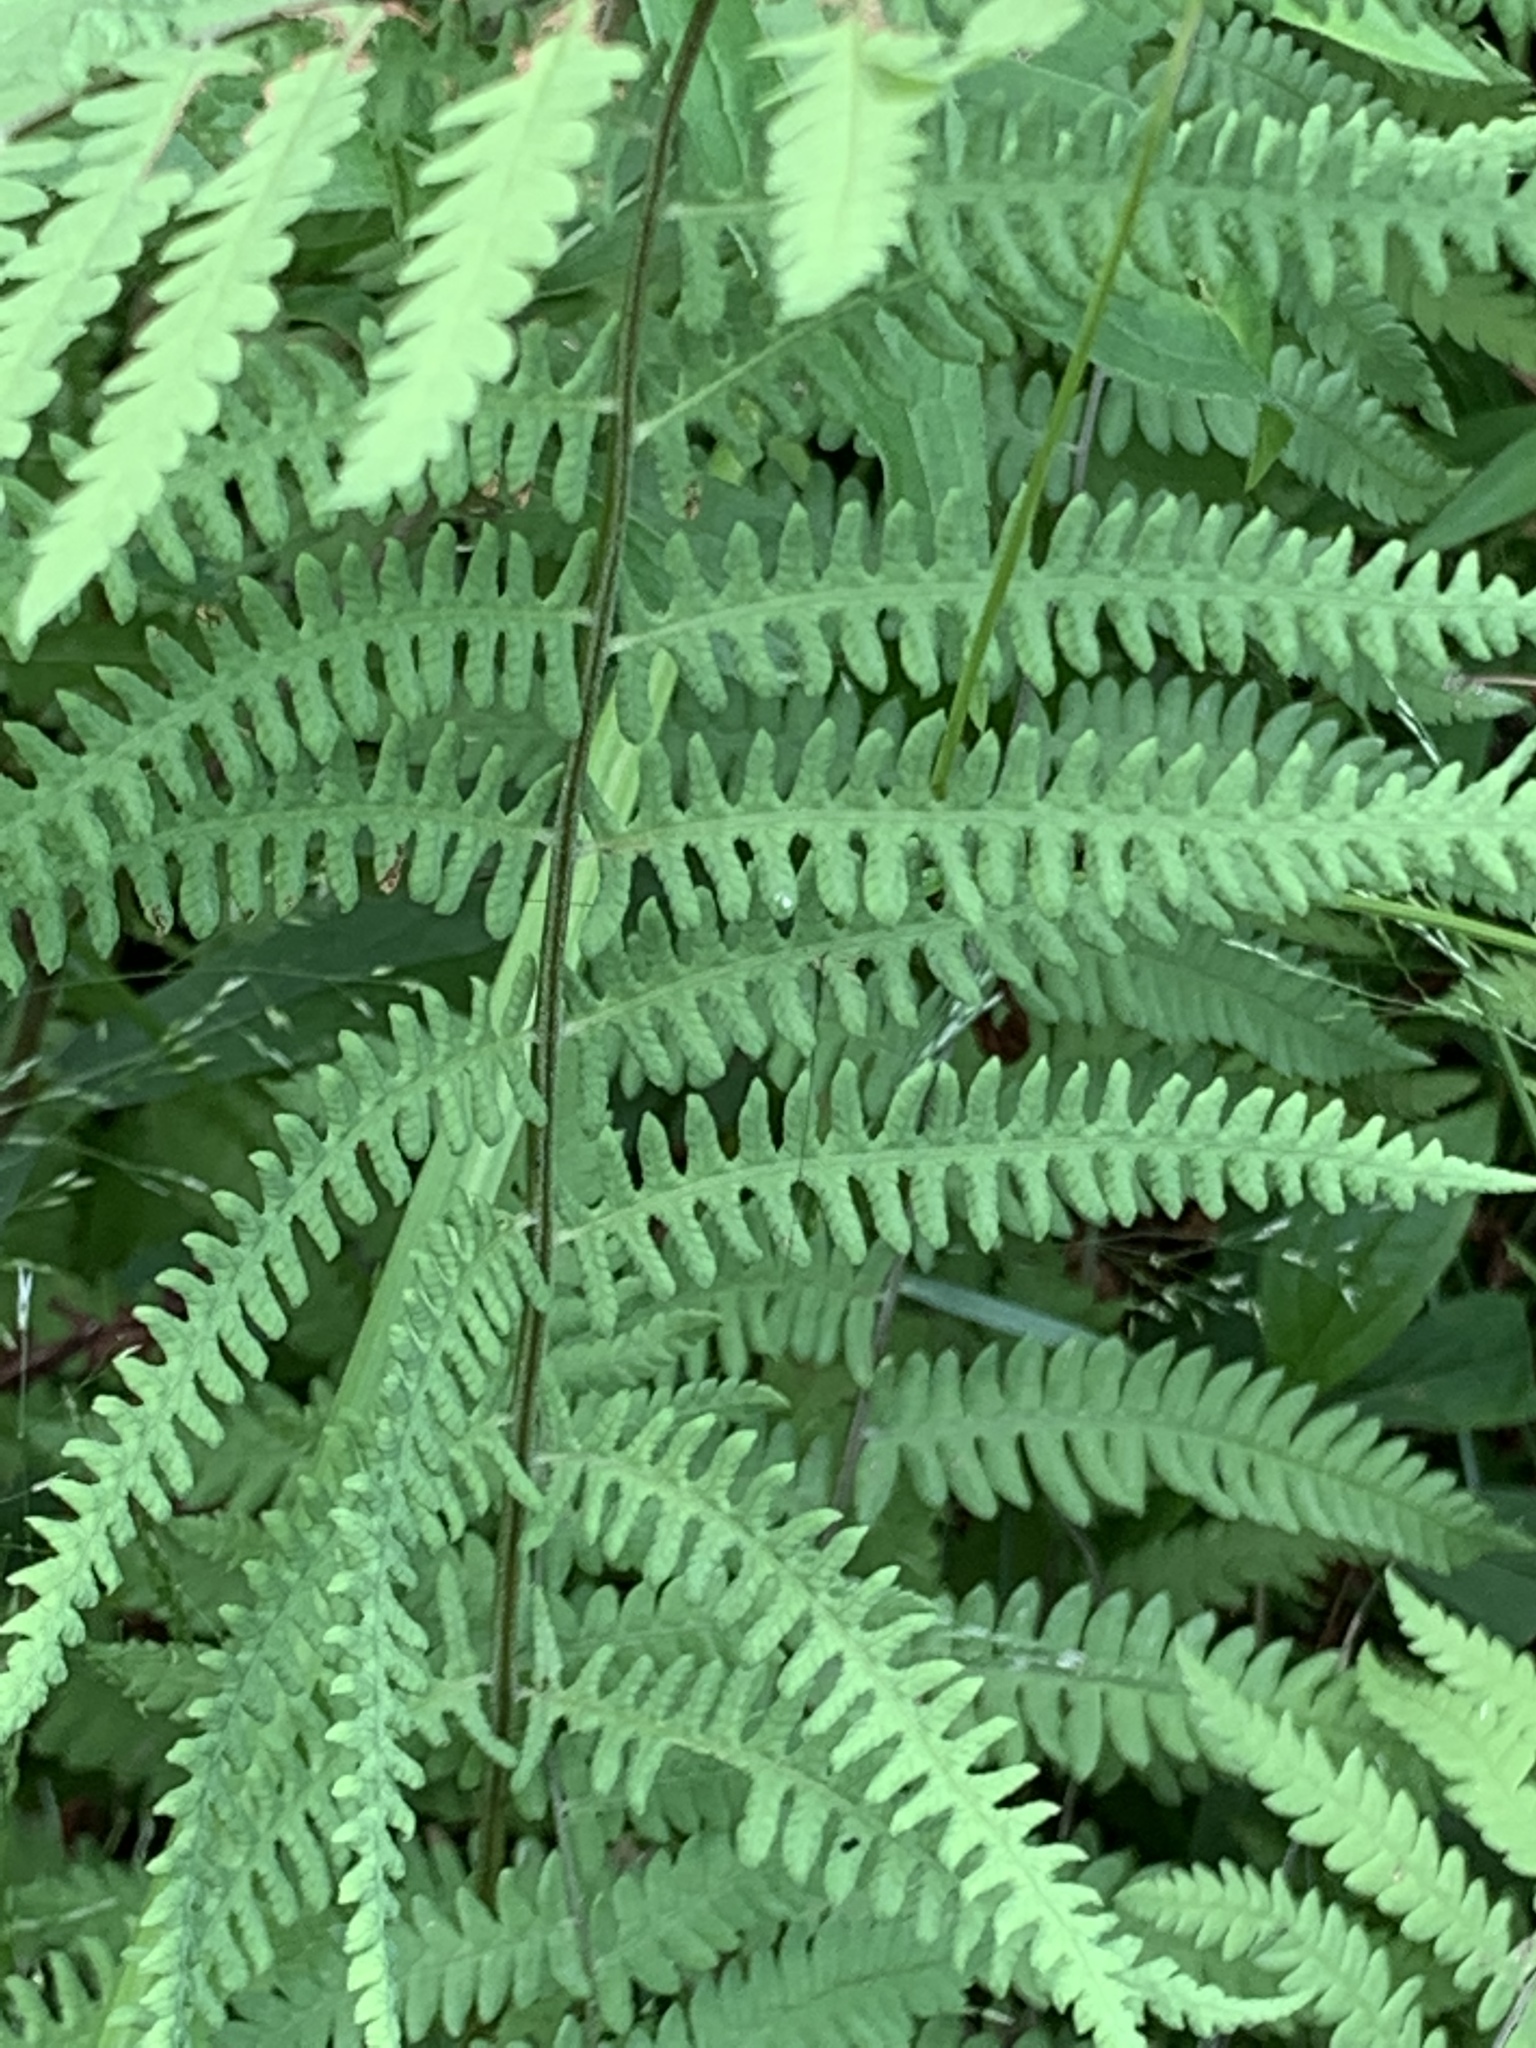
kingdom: Plantae
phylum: Tracheophyta
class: Polypodiopsida
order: Polypodiales
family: Thelypteridaceae
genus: Thelypteris
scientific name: Thelypteris palustris
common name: Marsh fern
